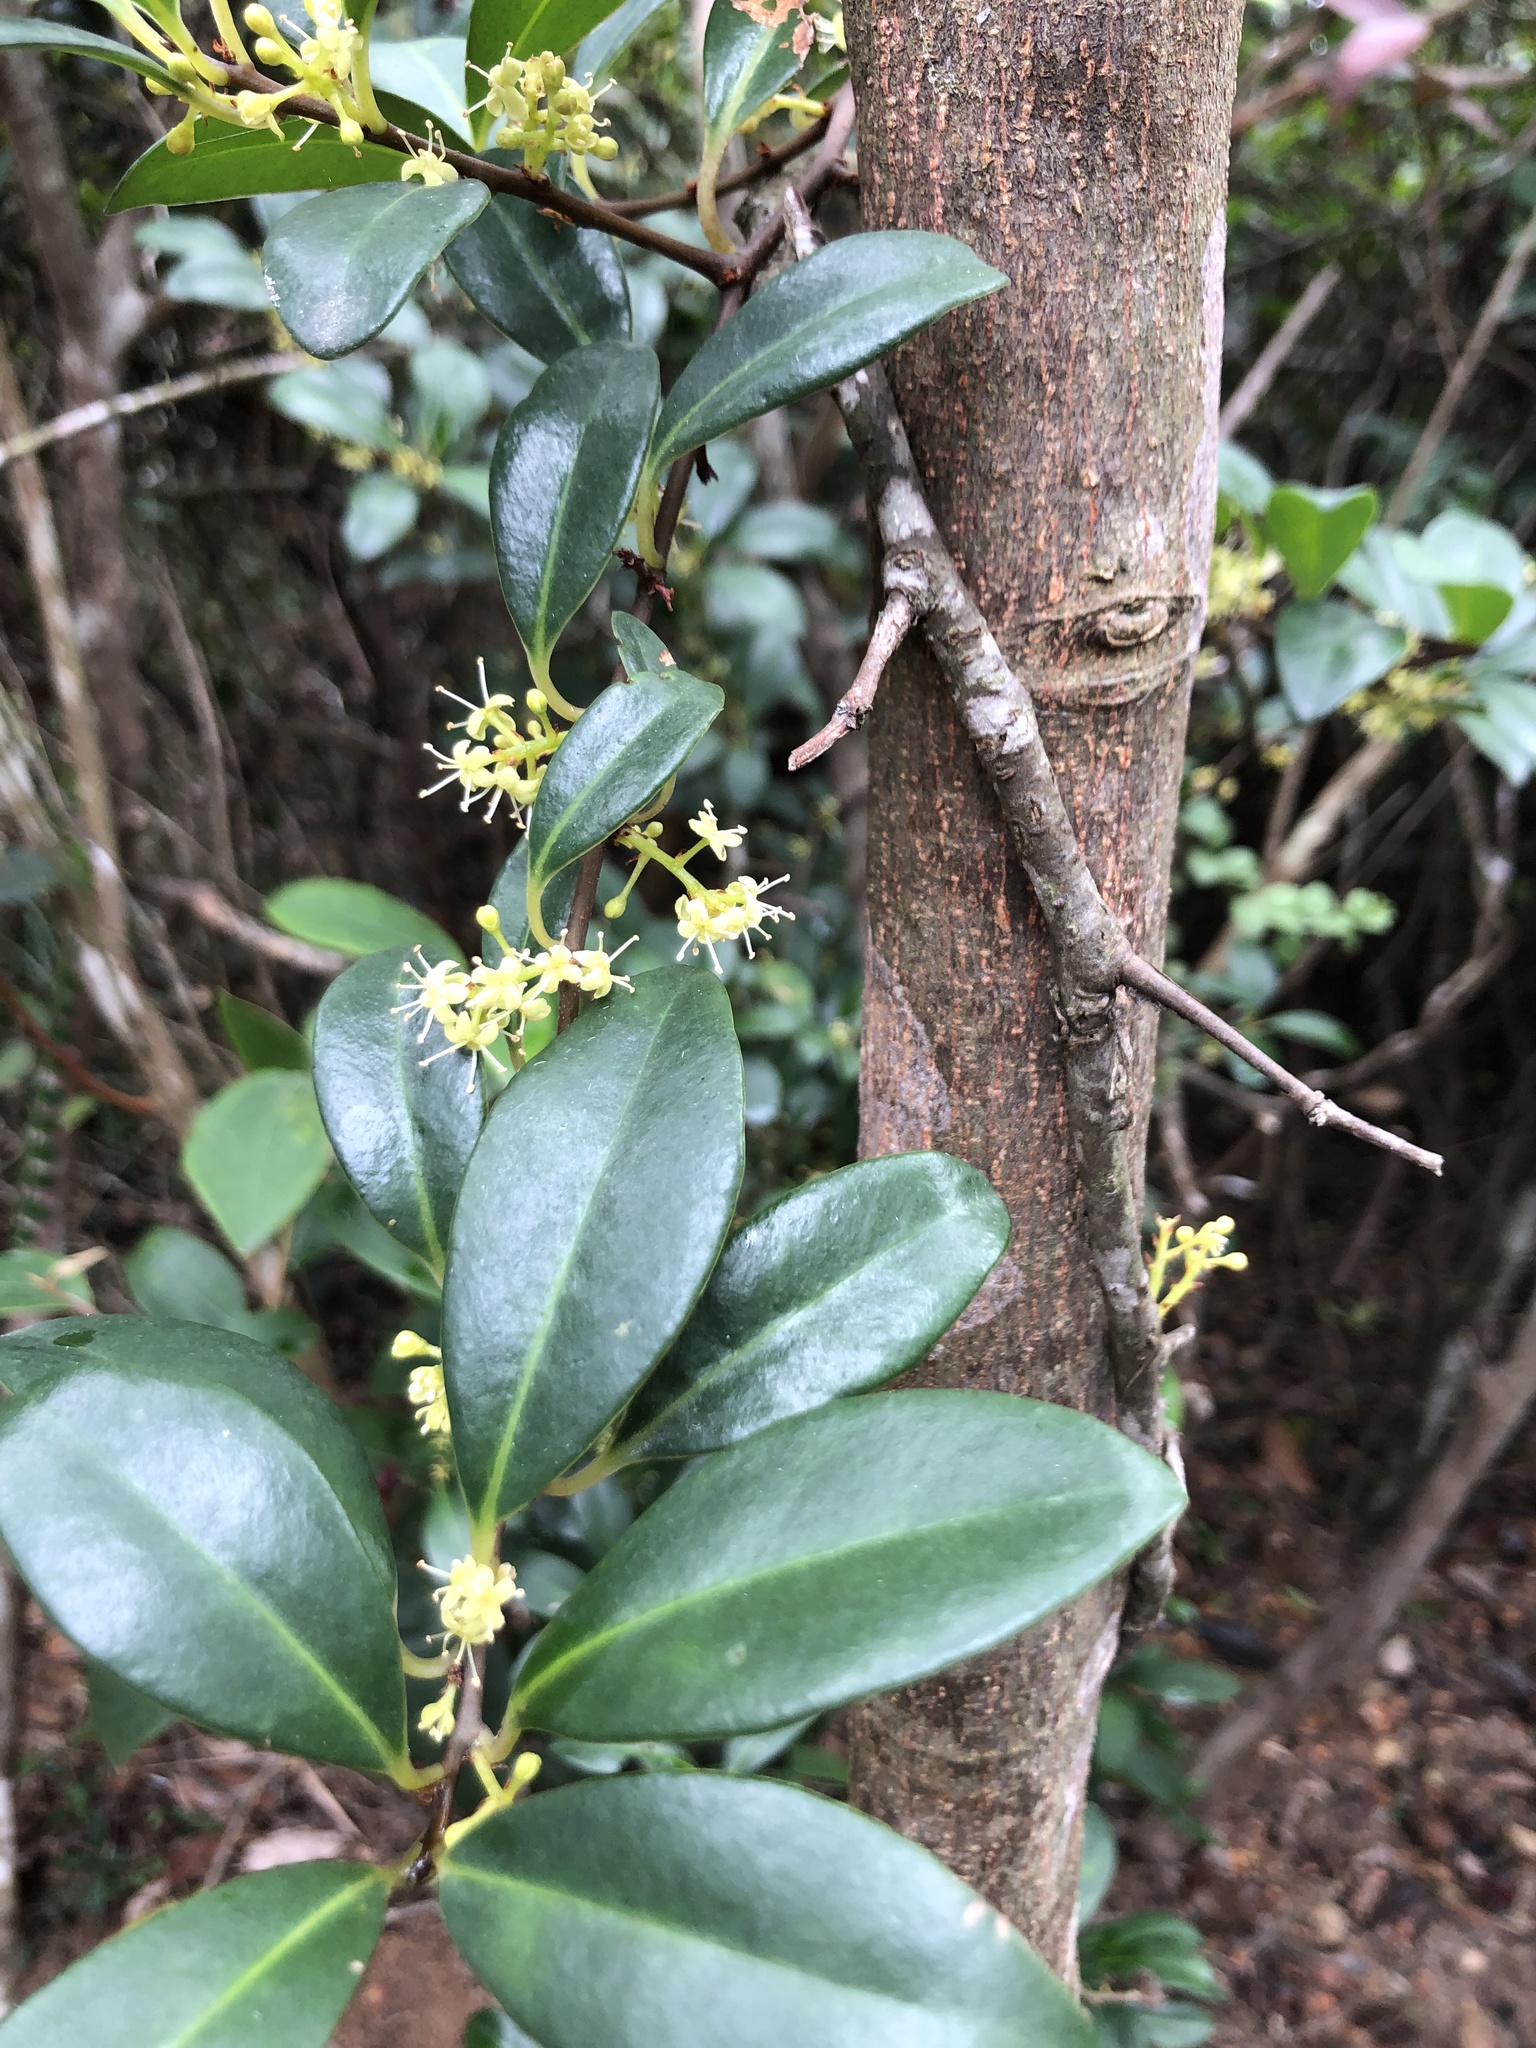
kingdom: Plantae
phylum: Tracheophyta
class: Magnoliopsida
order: Ericales
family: Primulaceae
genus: Embelia
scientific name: Embelia laeta
